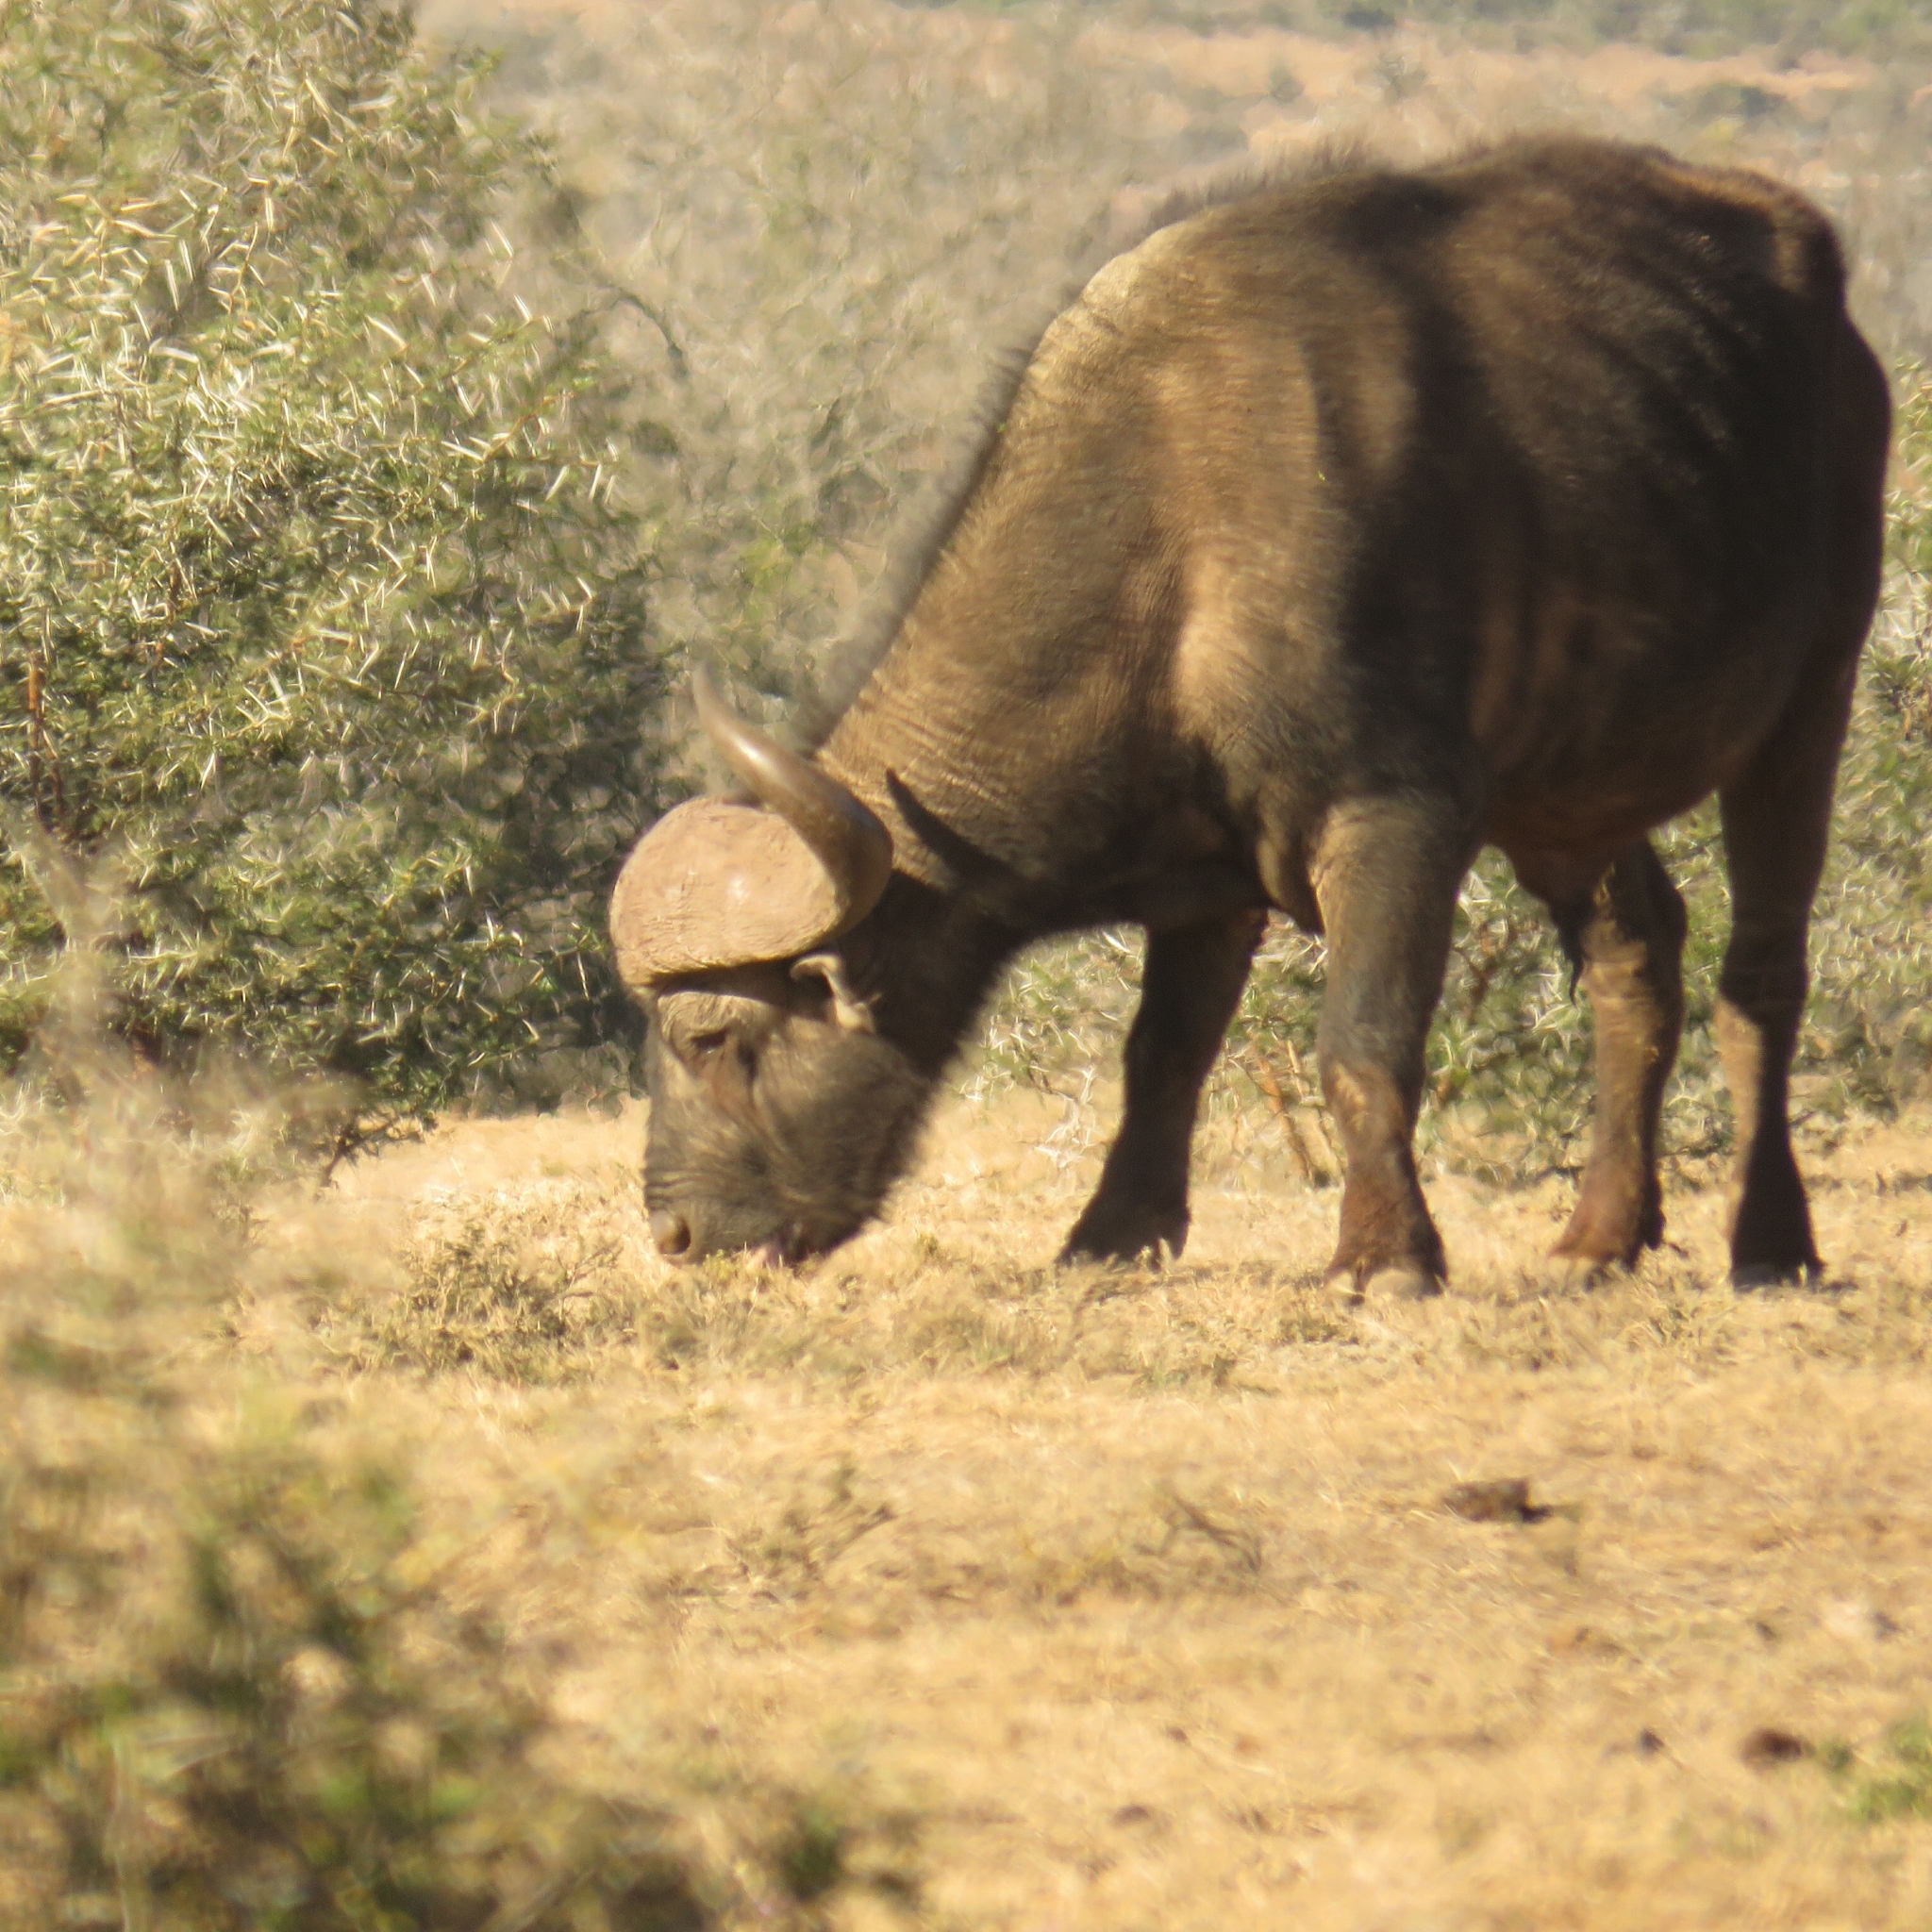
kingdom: Animalia
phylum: Chordata
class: Mammalia
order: Artiodactyla
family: Bovidae
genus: Syncerus
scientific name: Syncerus caffer
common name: African buffalo
